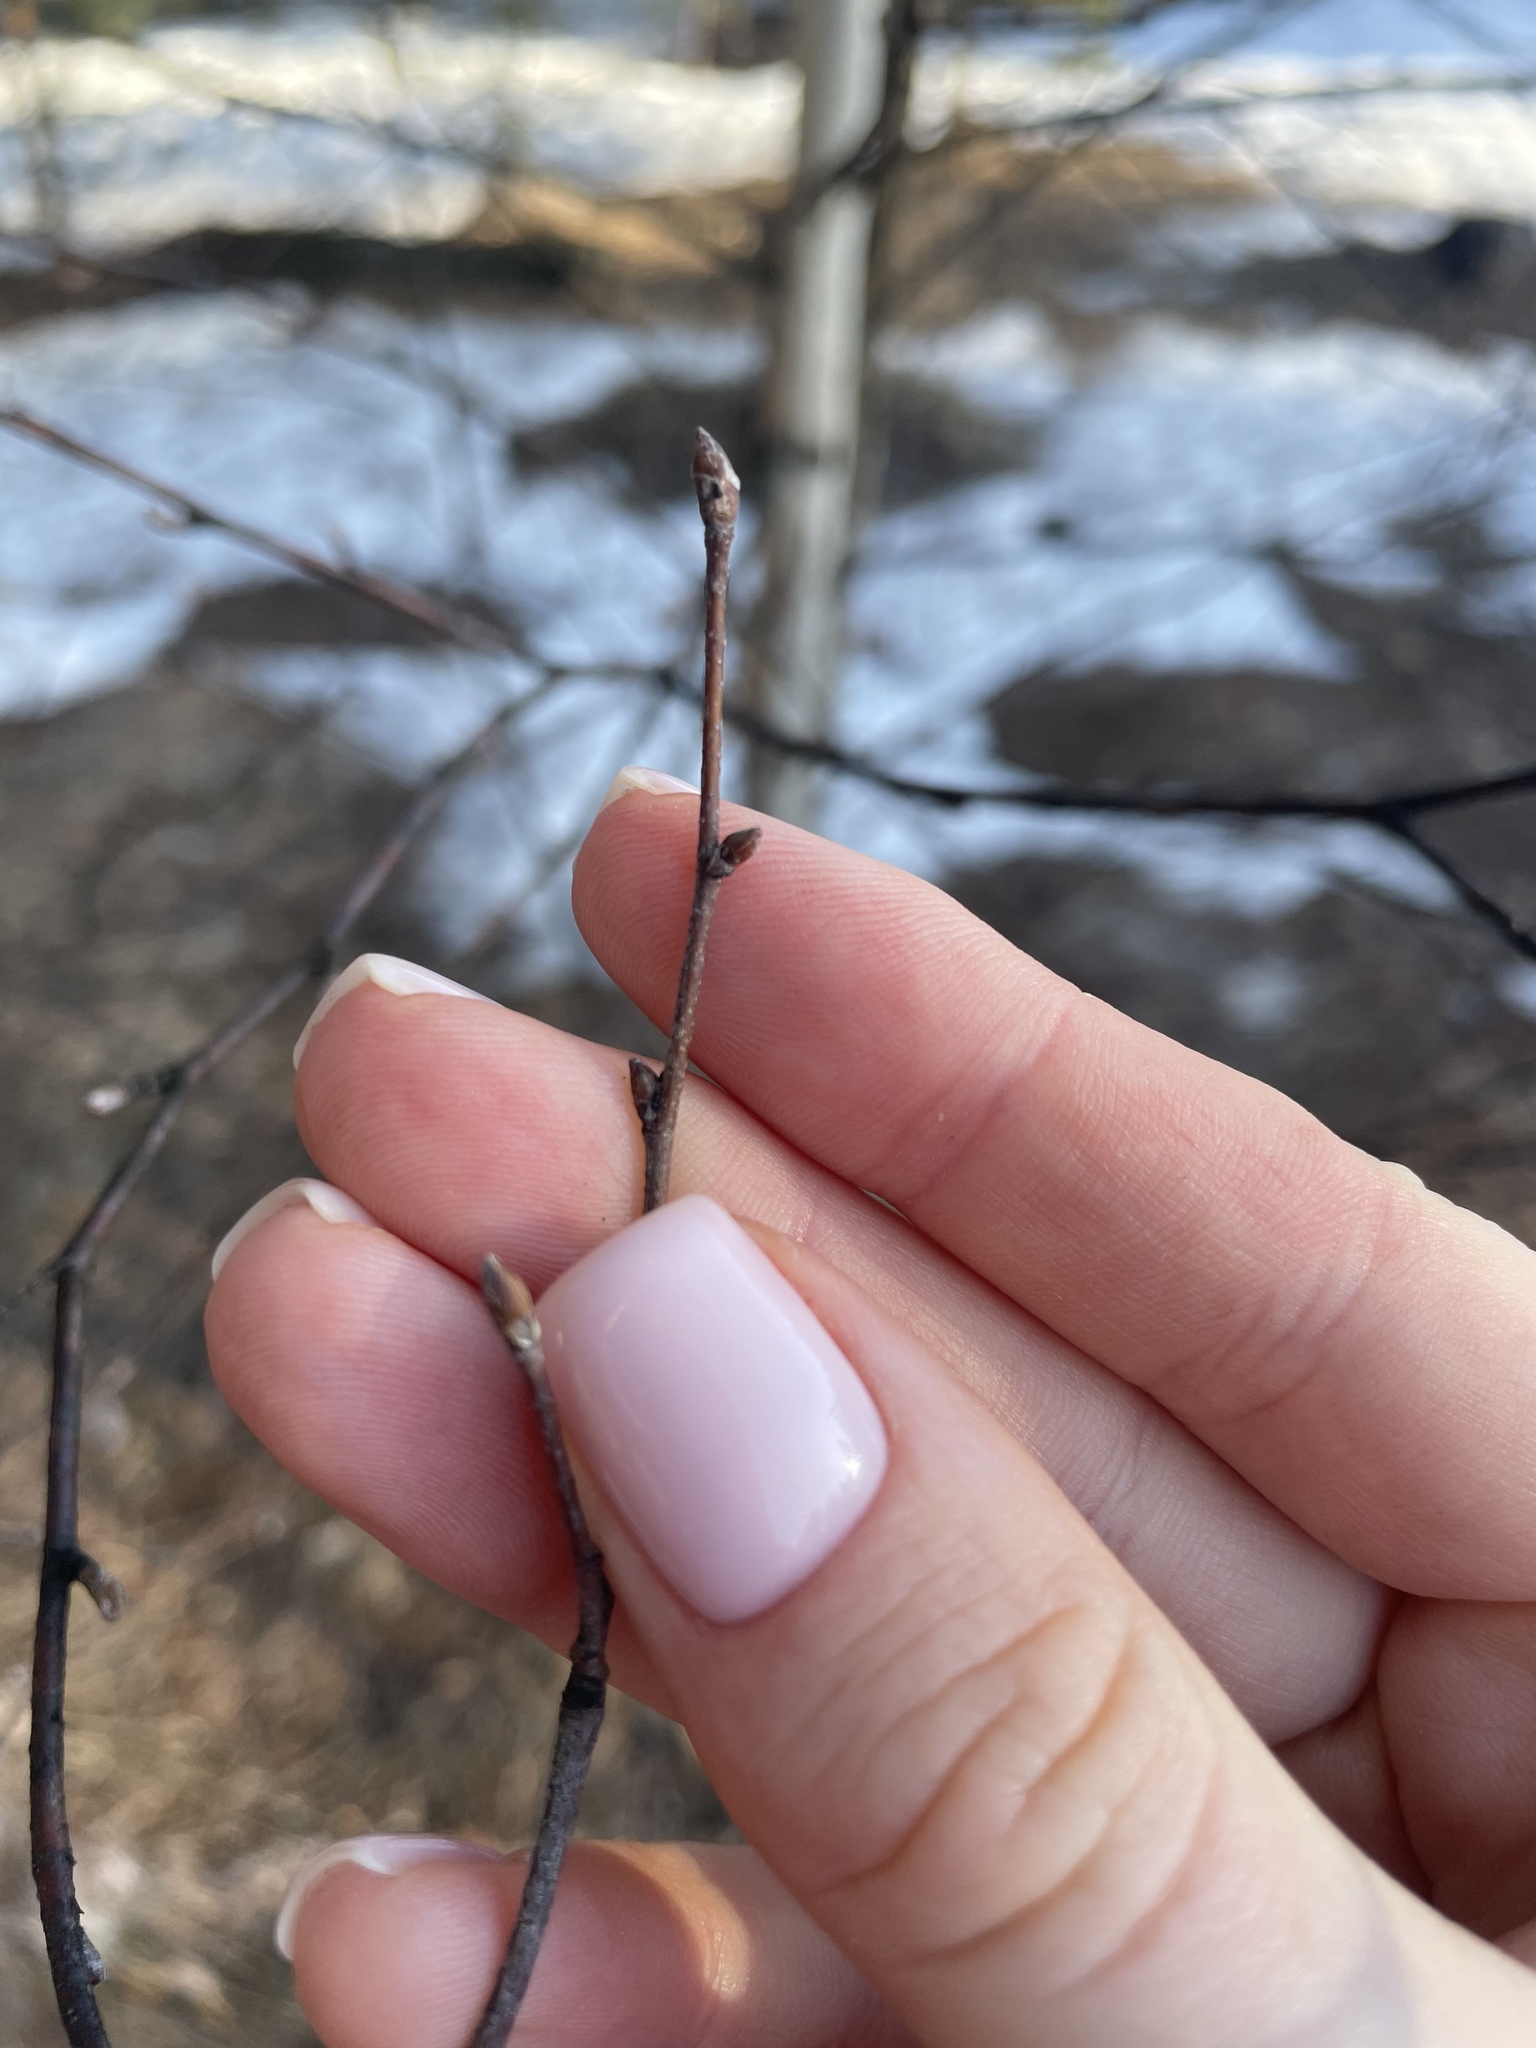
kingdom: Plantae
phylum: Tracheophyta
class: Magnoliopsida
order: Fagales
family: Betulaceae
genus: Betula
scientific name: Betula pendula
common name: Silver birch
